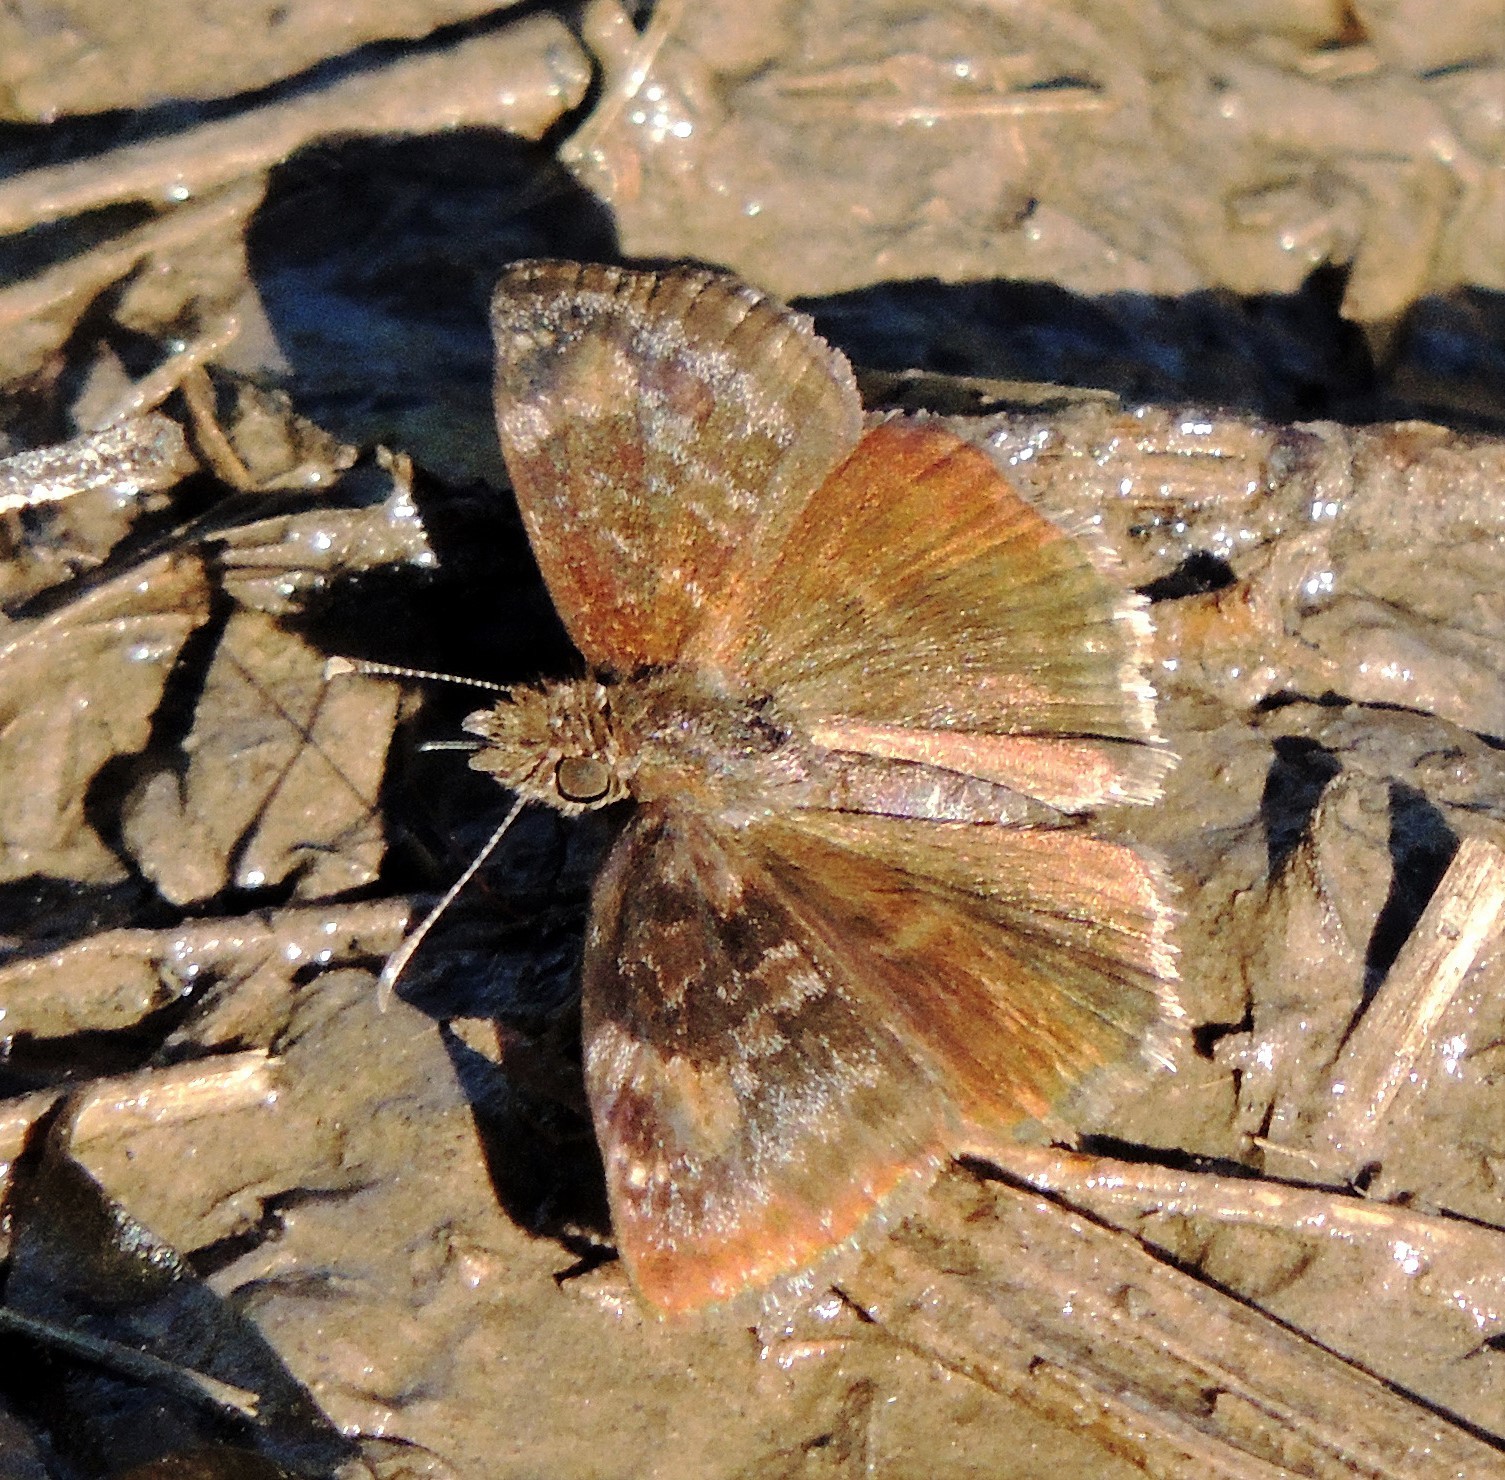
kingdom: Animalia
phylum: Arthropoda
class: Insecta
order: Lepidoptera
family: Hesperiidae
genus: Gesta
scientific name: Gesta gesta
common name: Gesta duskywing
